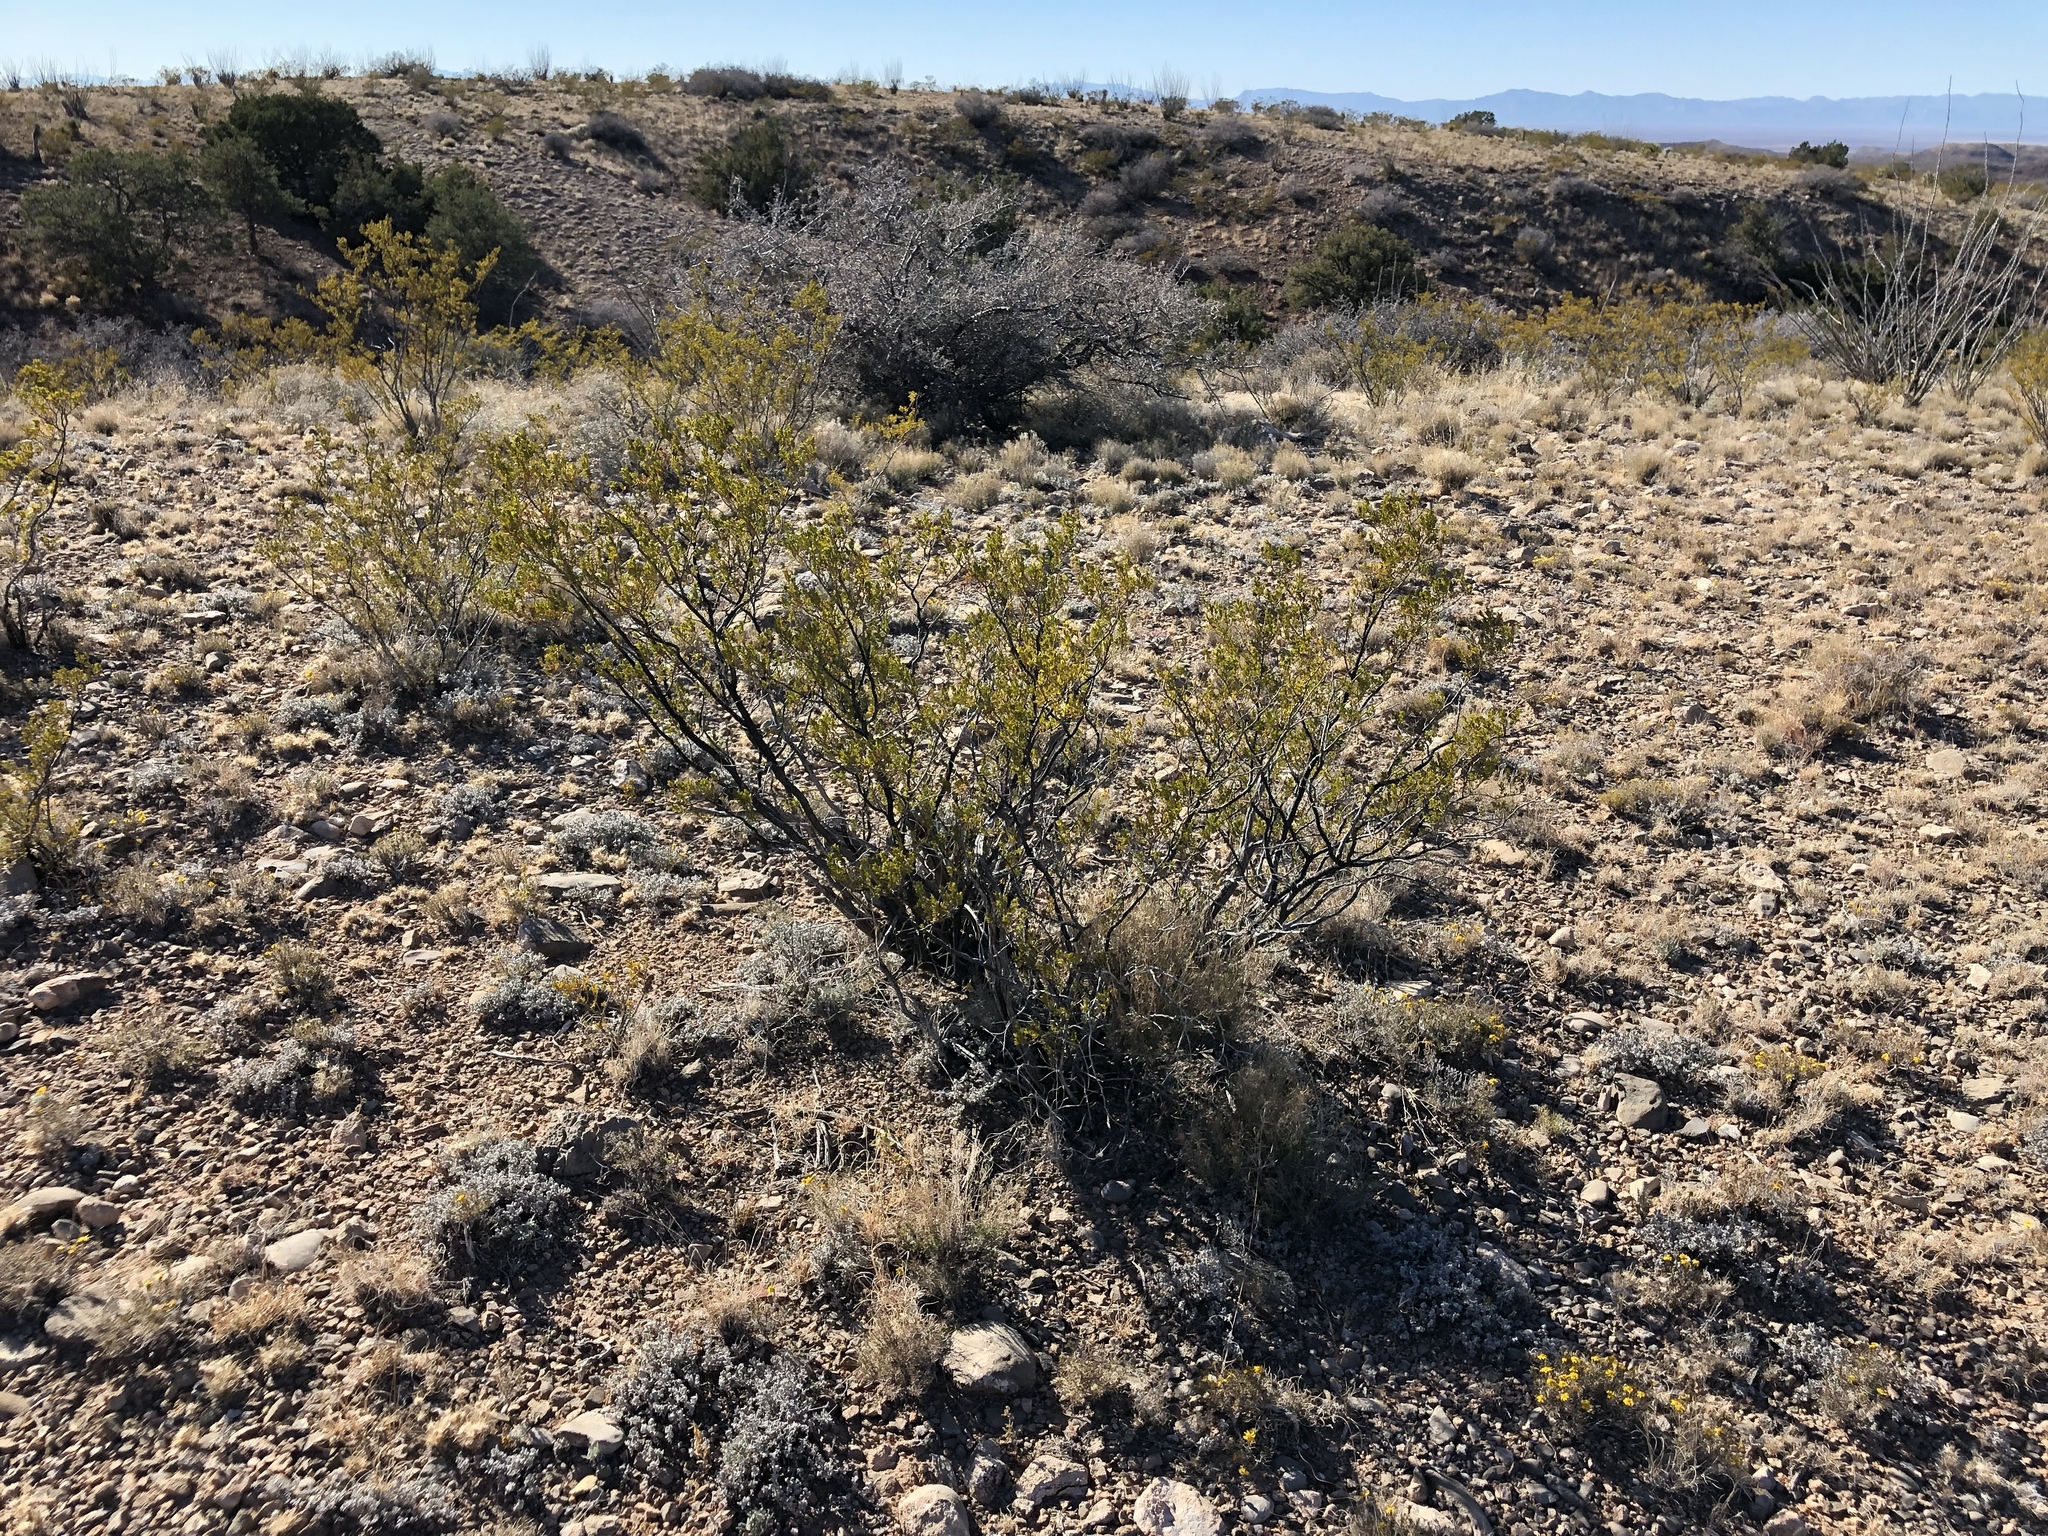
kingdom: Plantae
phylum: Tracheophyta
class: Magnoliopsida
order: Zygophyllales
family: Zygophyllaceae
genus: Larrea
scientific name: Larrea tridentata
